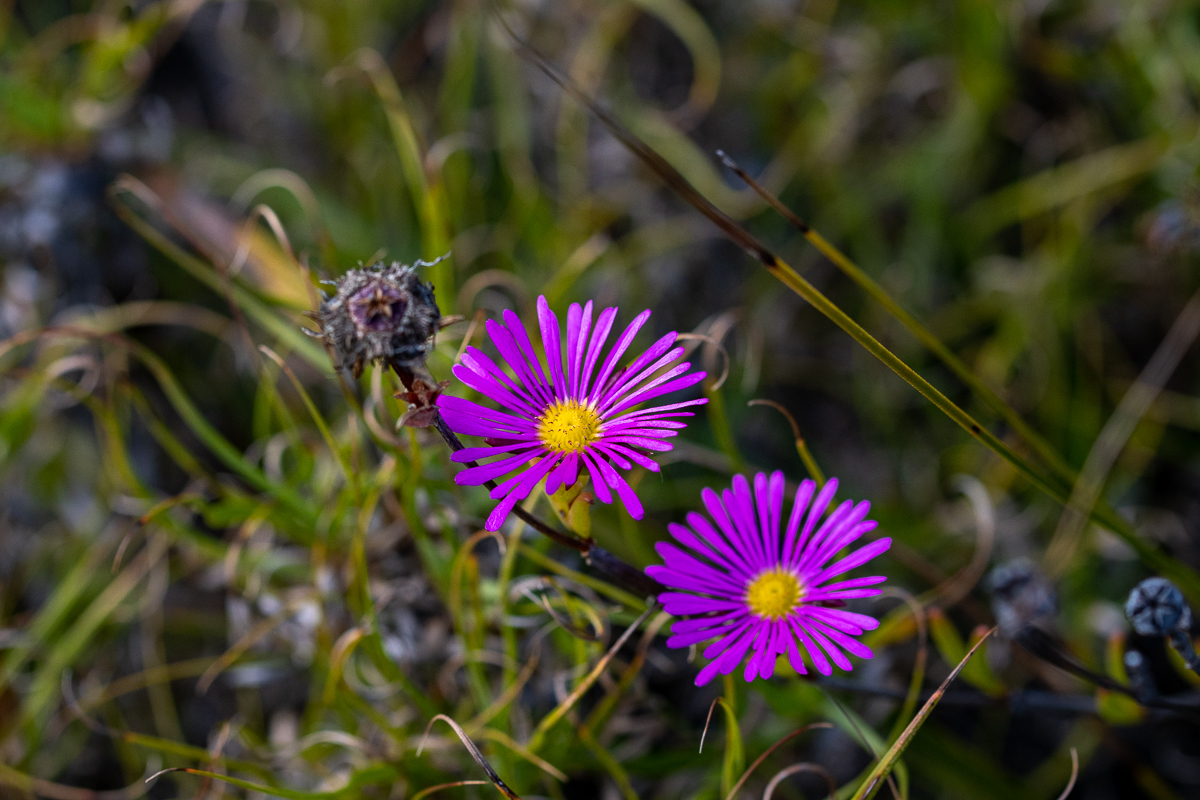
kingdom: Plantae
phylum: Tracheophyta
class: Magnoliopsida
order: Caryophyllales
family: Aizoaceae
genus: Erepsia
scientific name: Erepsia anceps
